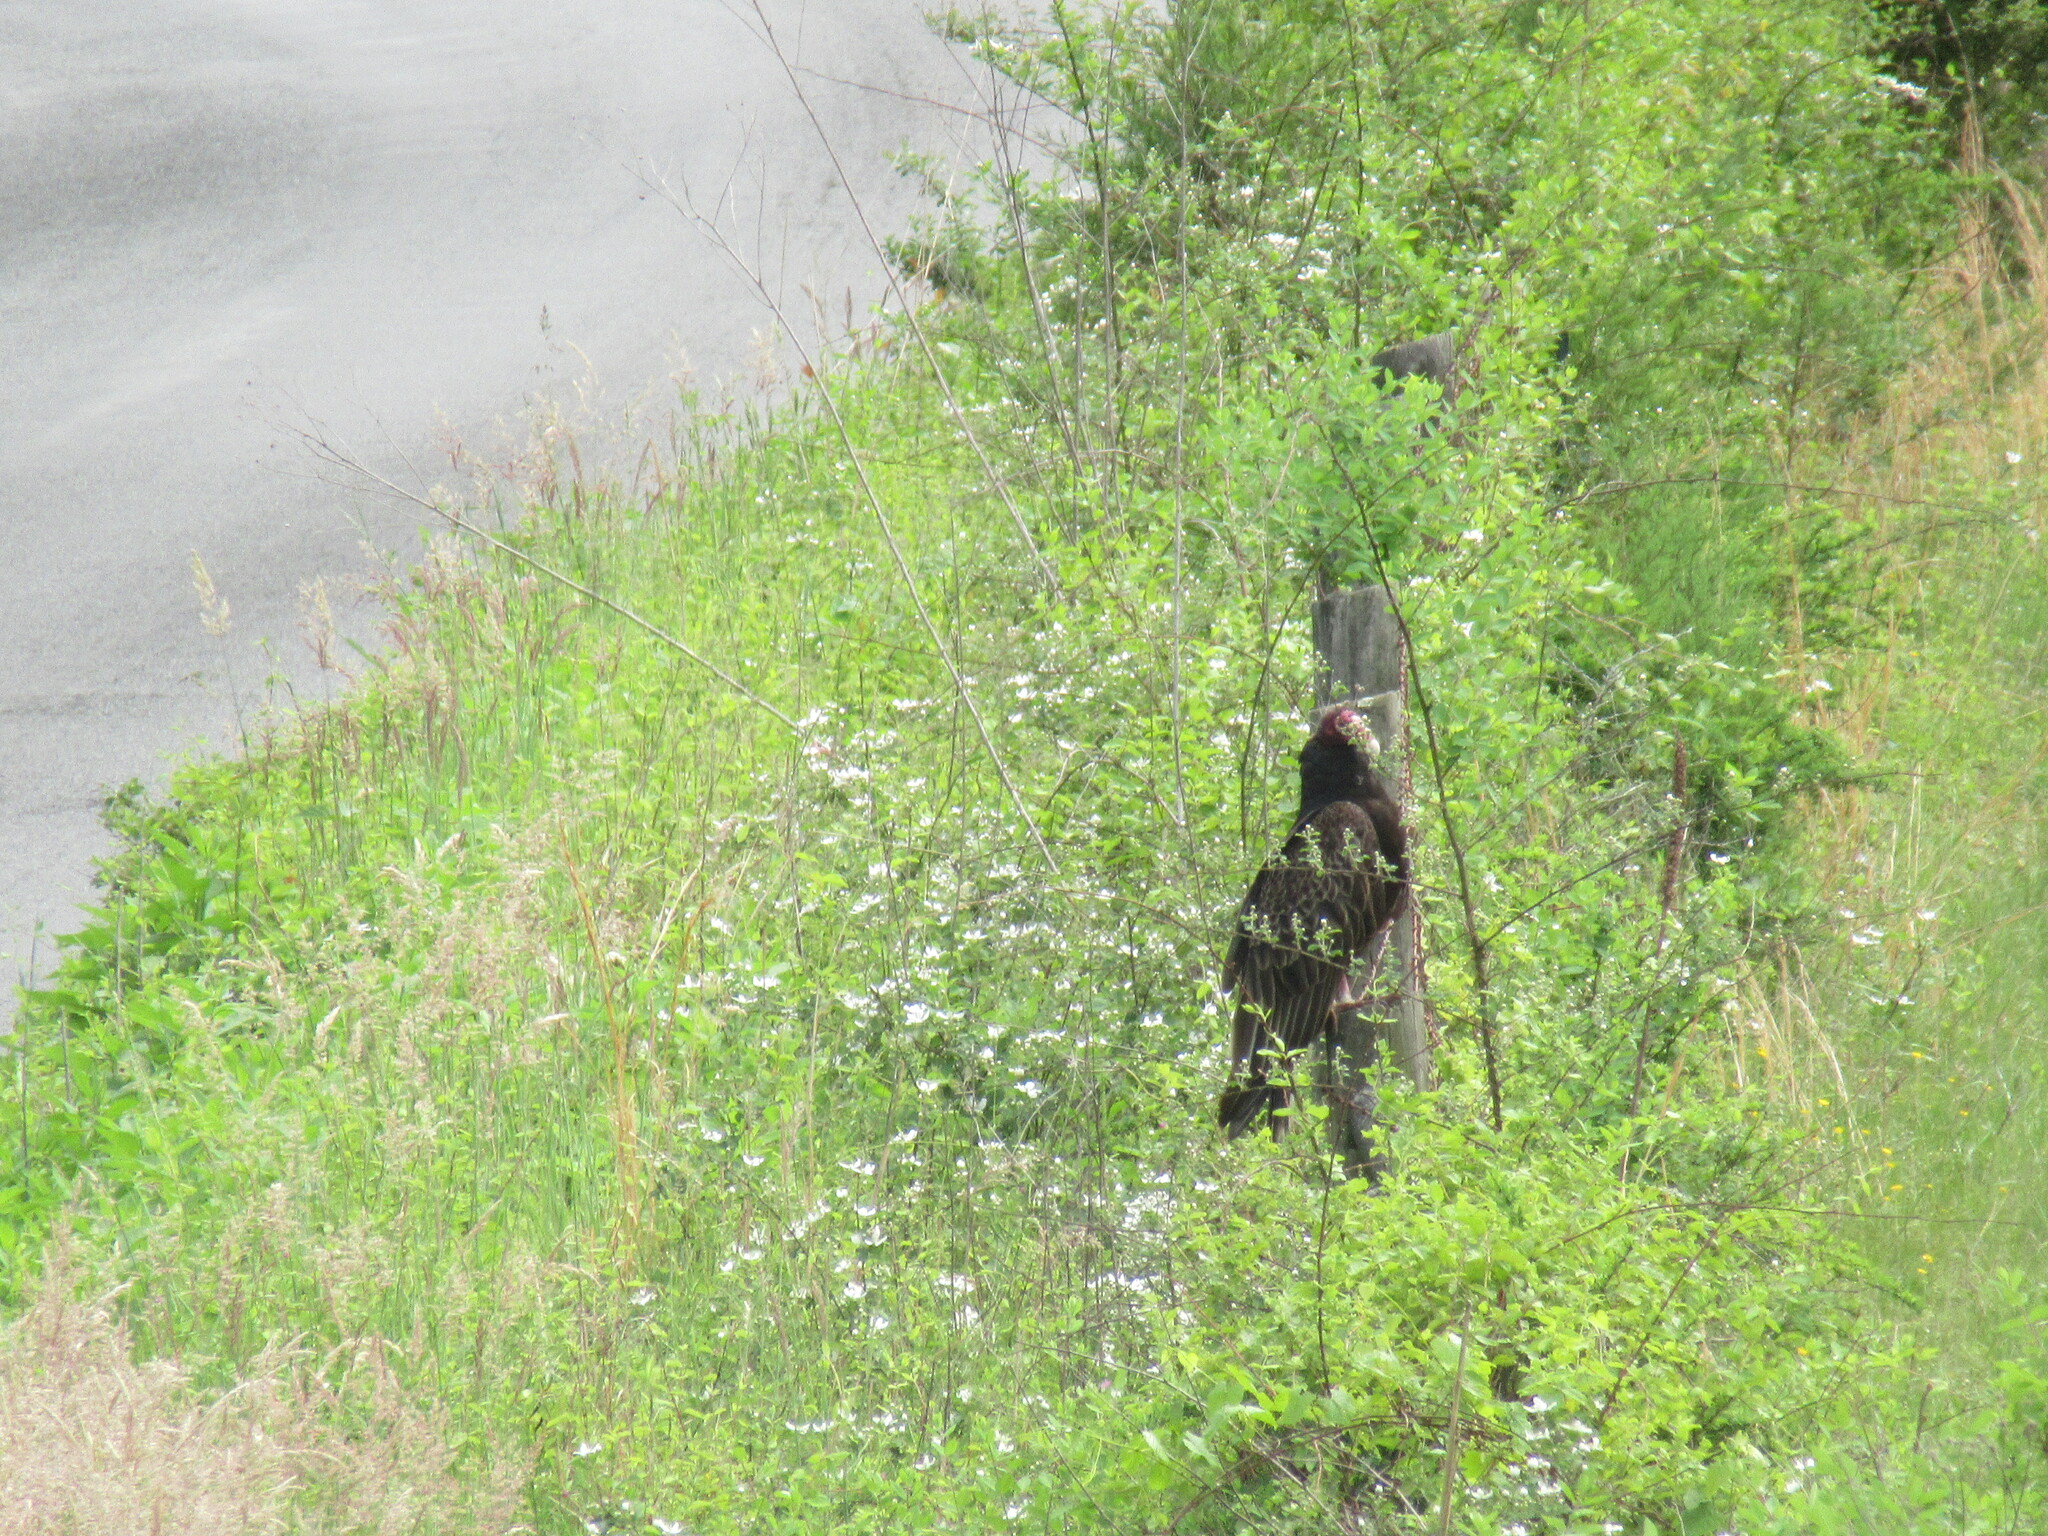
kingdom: Animalia
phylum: Chordata
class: Aves
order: Accipitriformes
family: Cathartidae
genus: Cathartes
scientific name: Cathartes aura
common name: Turkey vulture
